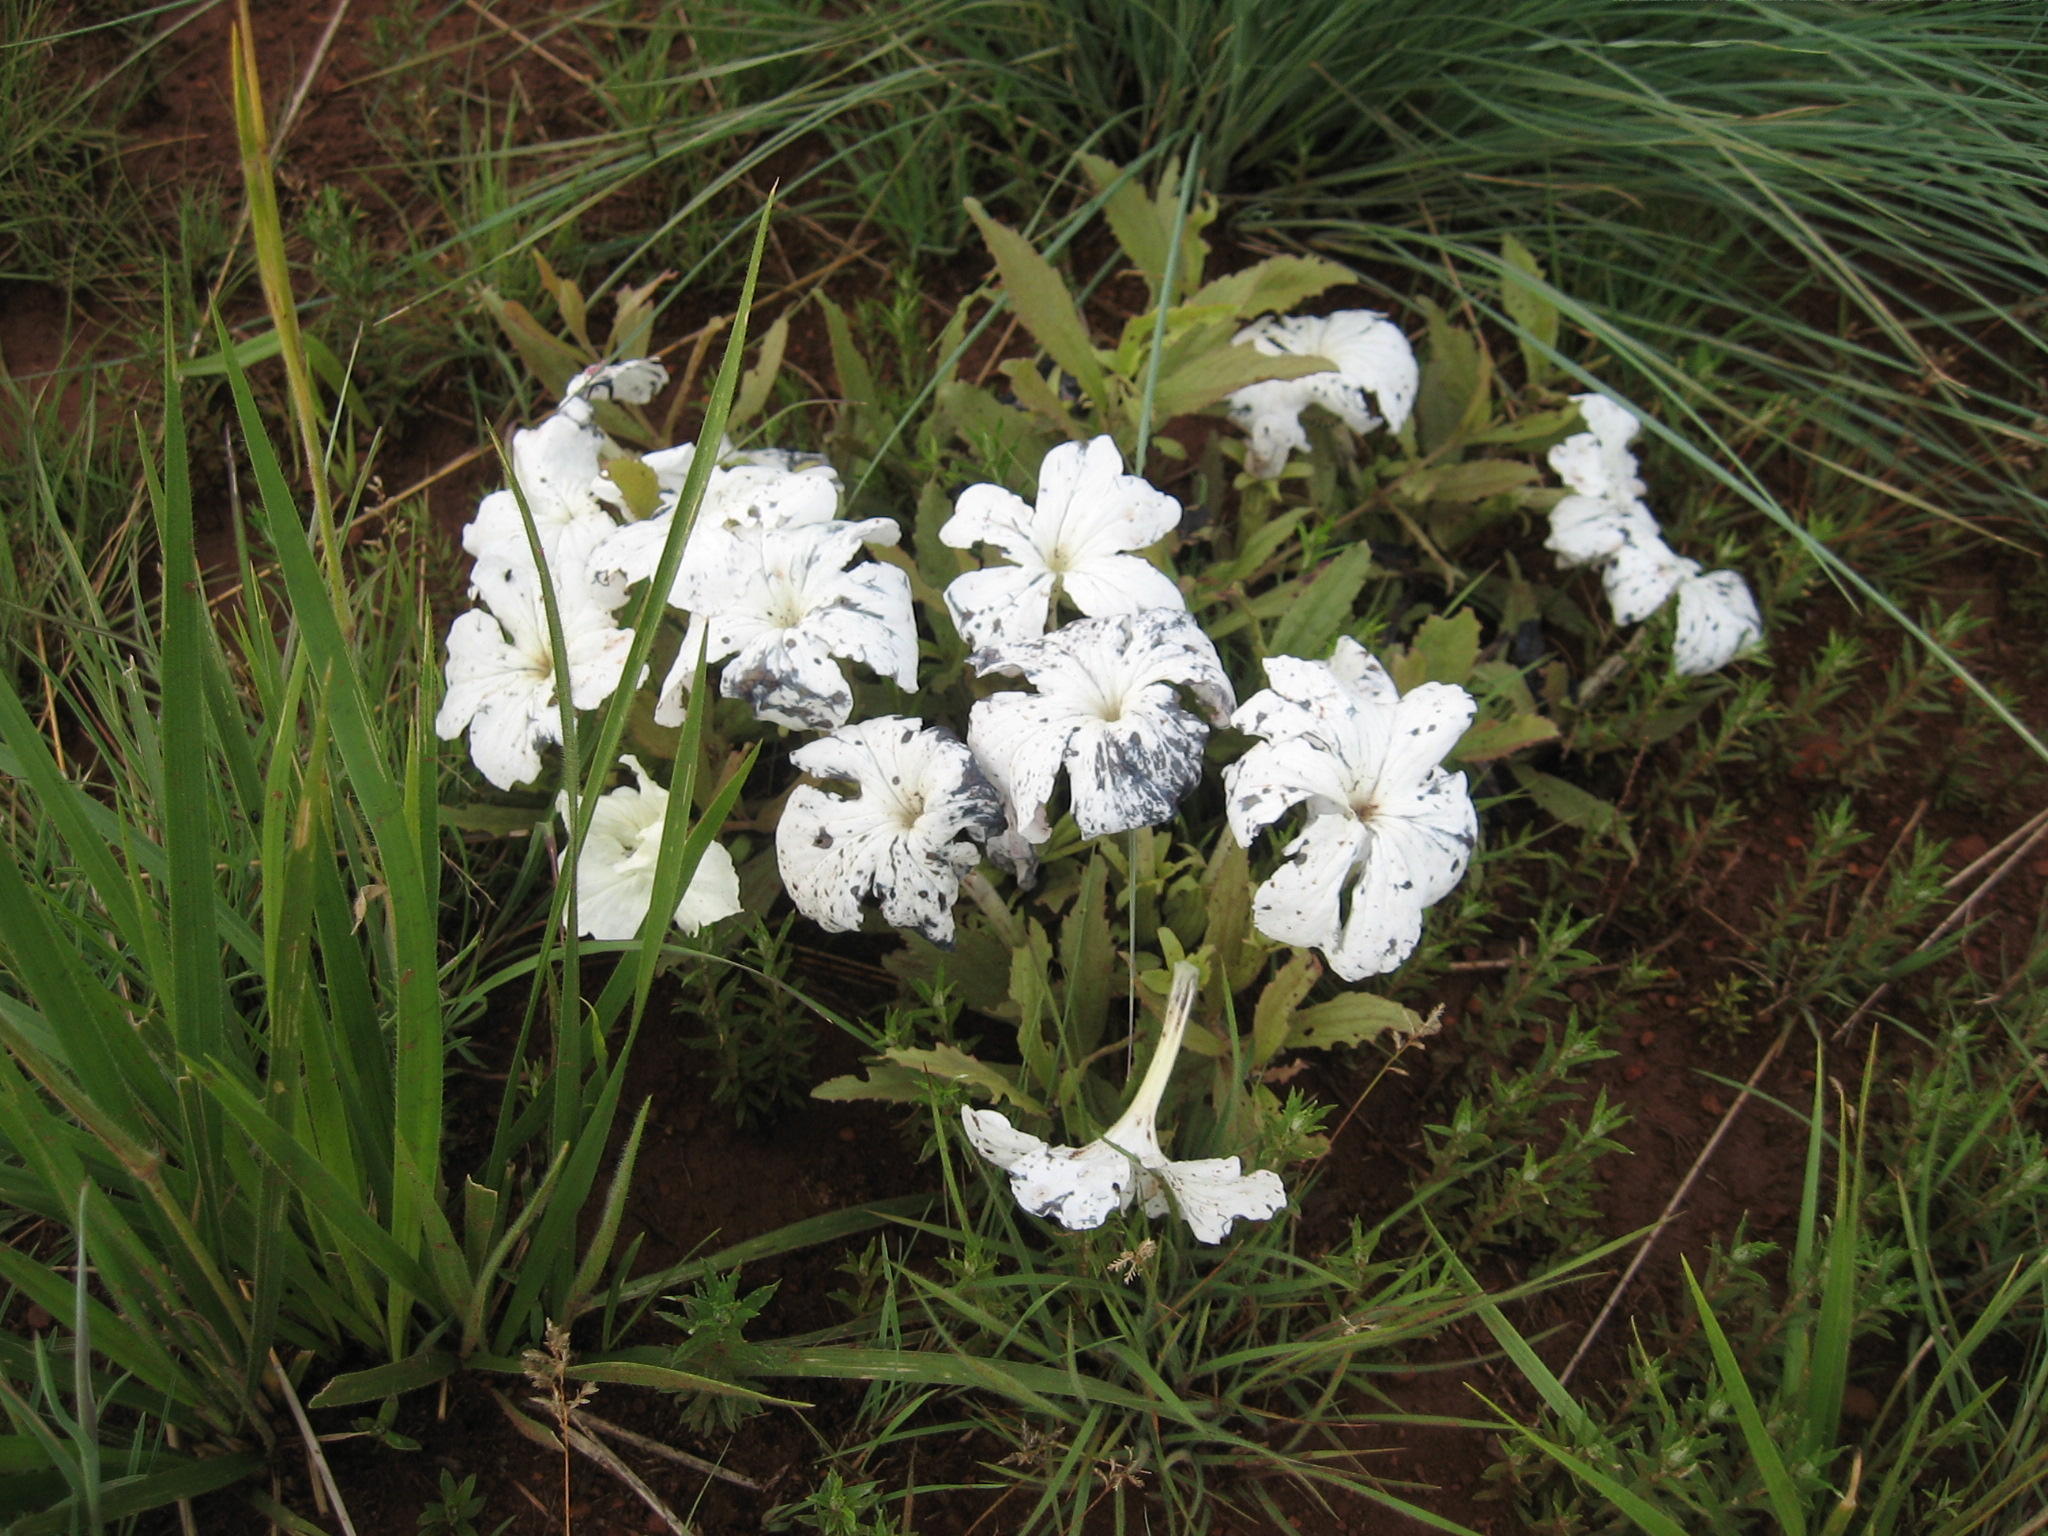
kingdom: Plantae
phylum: Tracheophyta
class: Magnoliopsida
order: Lamiales
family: Orobanchaceae
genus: Cycnium
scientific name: Cycnium adonense
